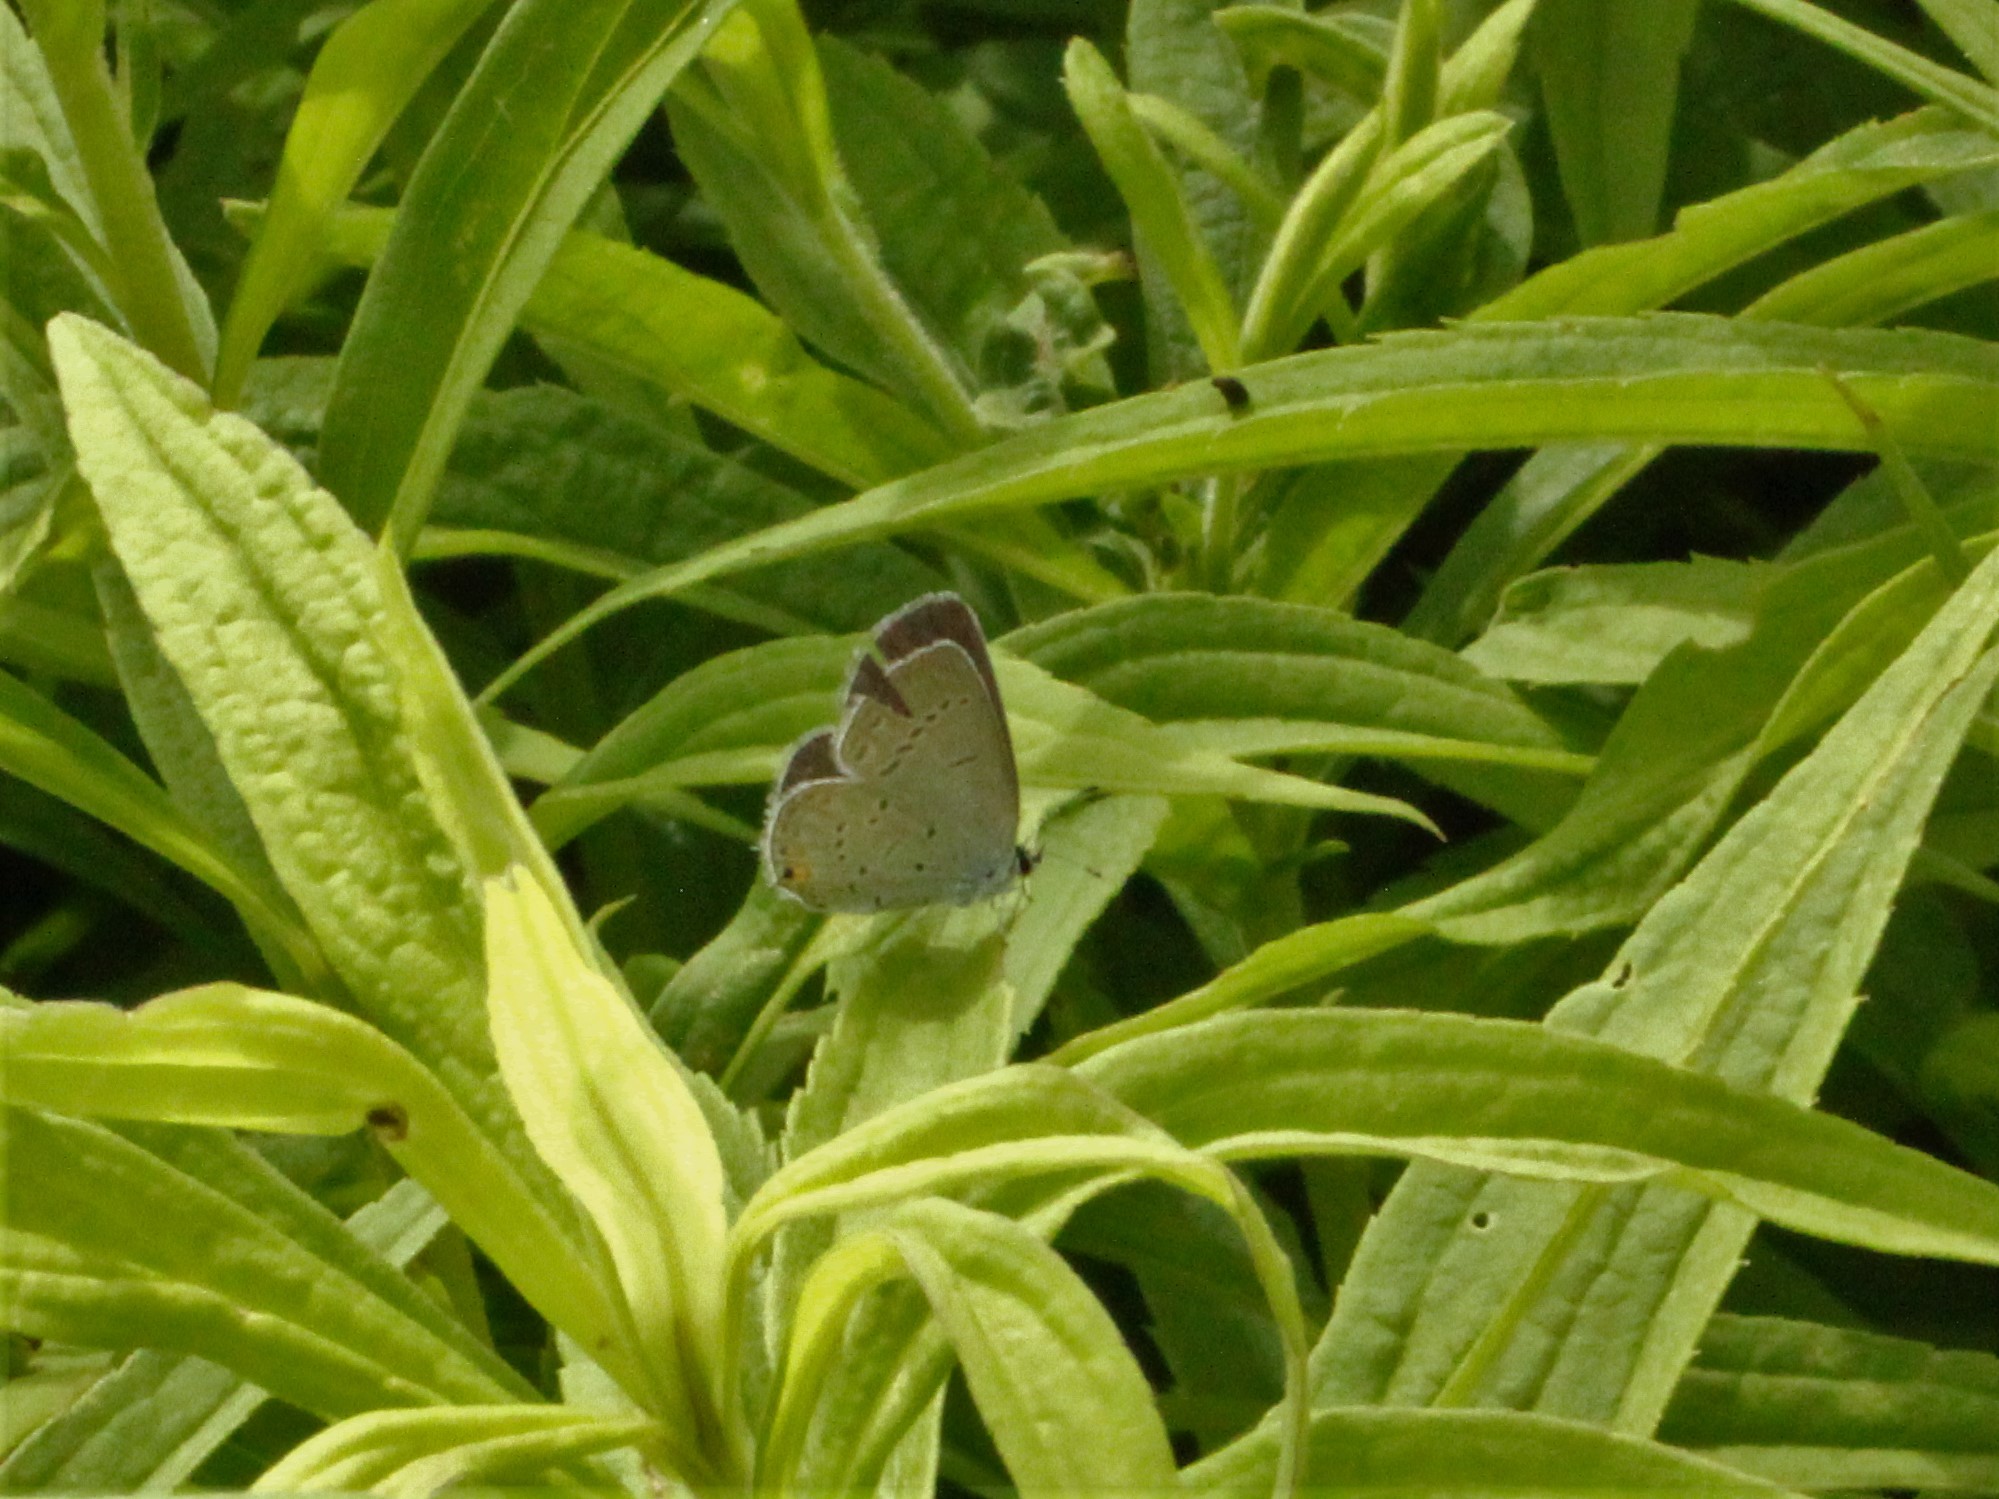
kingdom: Animalia
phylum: Arthropoda
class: Insecta
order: Lepidoptera
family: Lycaenidae
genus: Elkalyce
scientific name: Elkalyce comyntas
